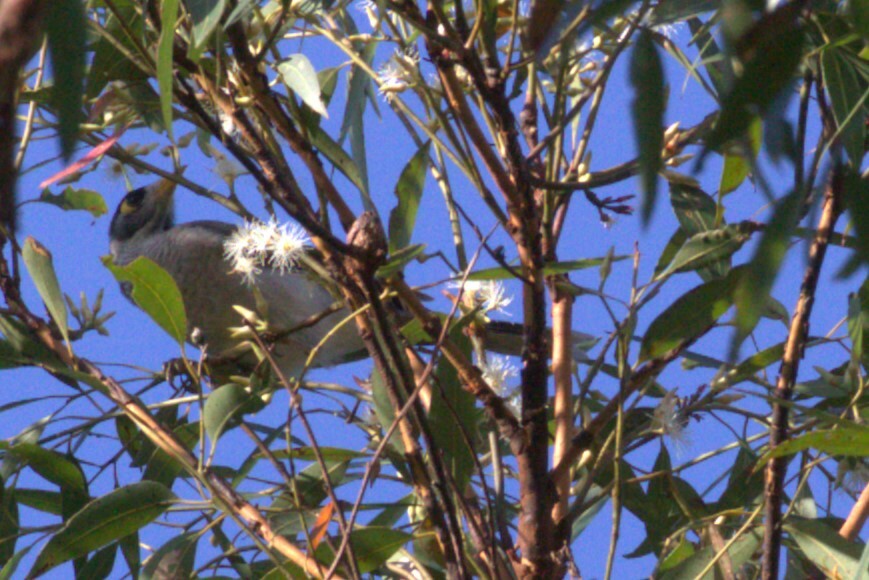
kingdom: Animalia
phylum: Chordata
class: Aves
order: Passeriformes
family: Meliphagidae
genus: Manorina
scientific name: Manorina melanocephala
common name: Noisy miner
